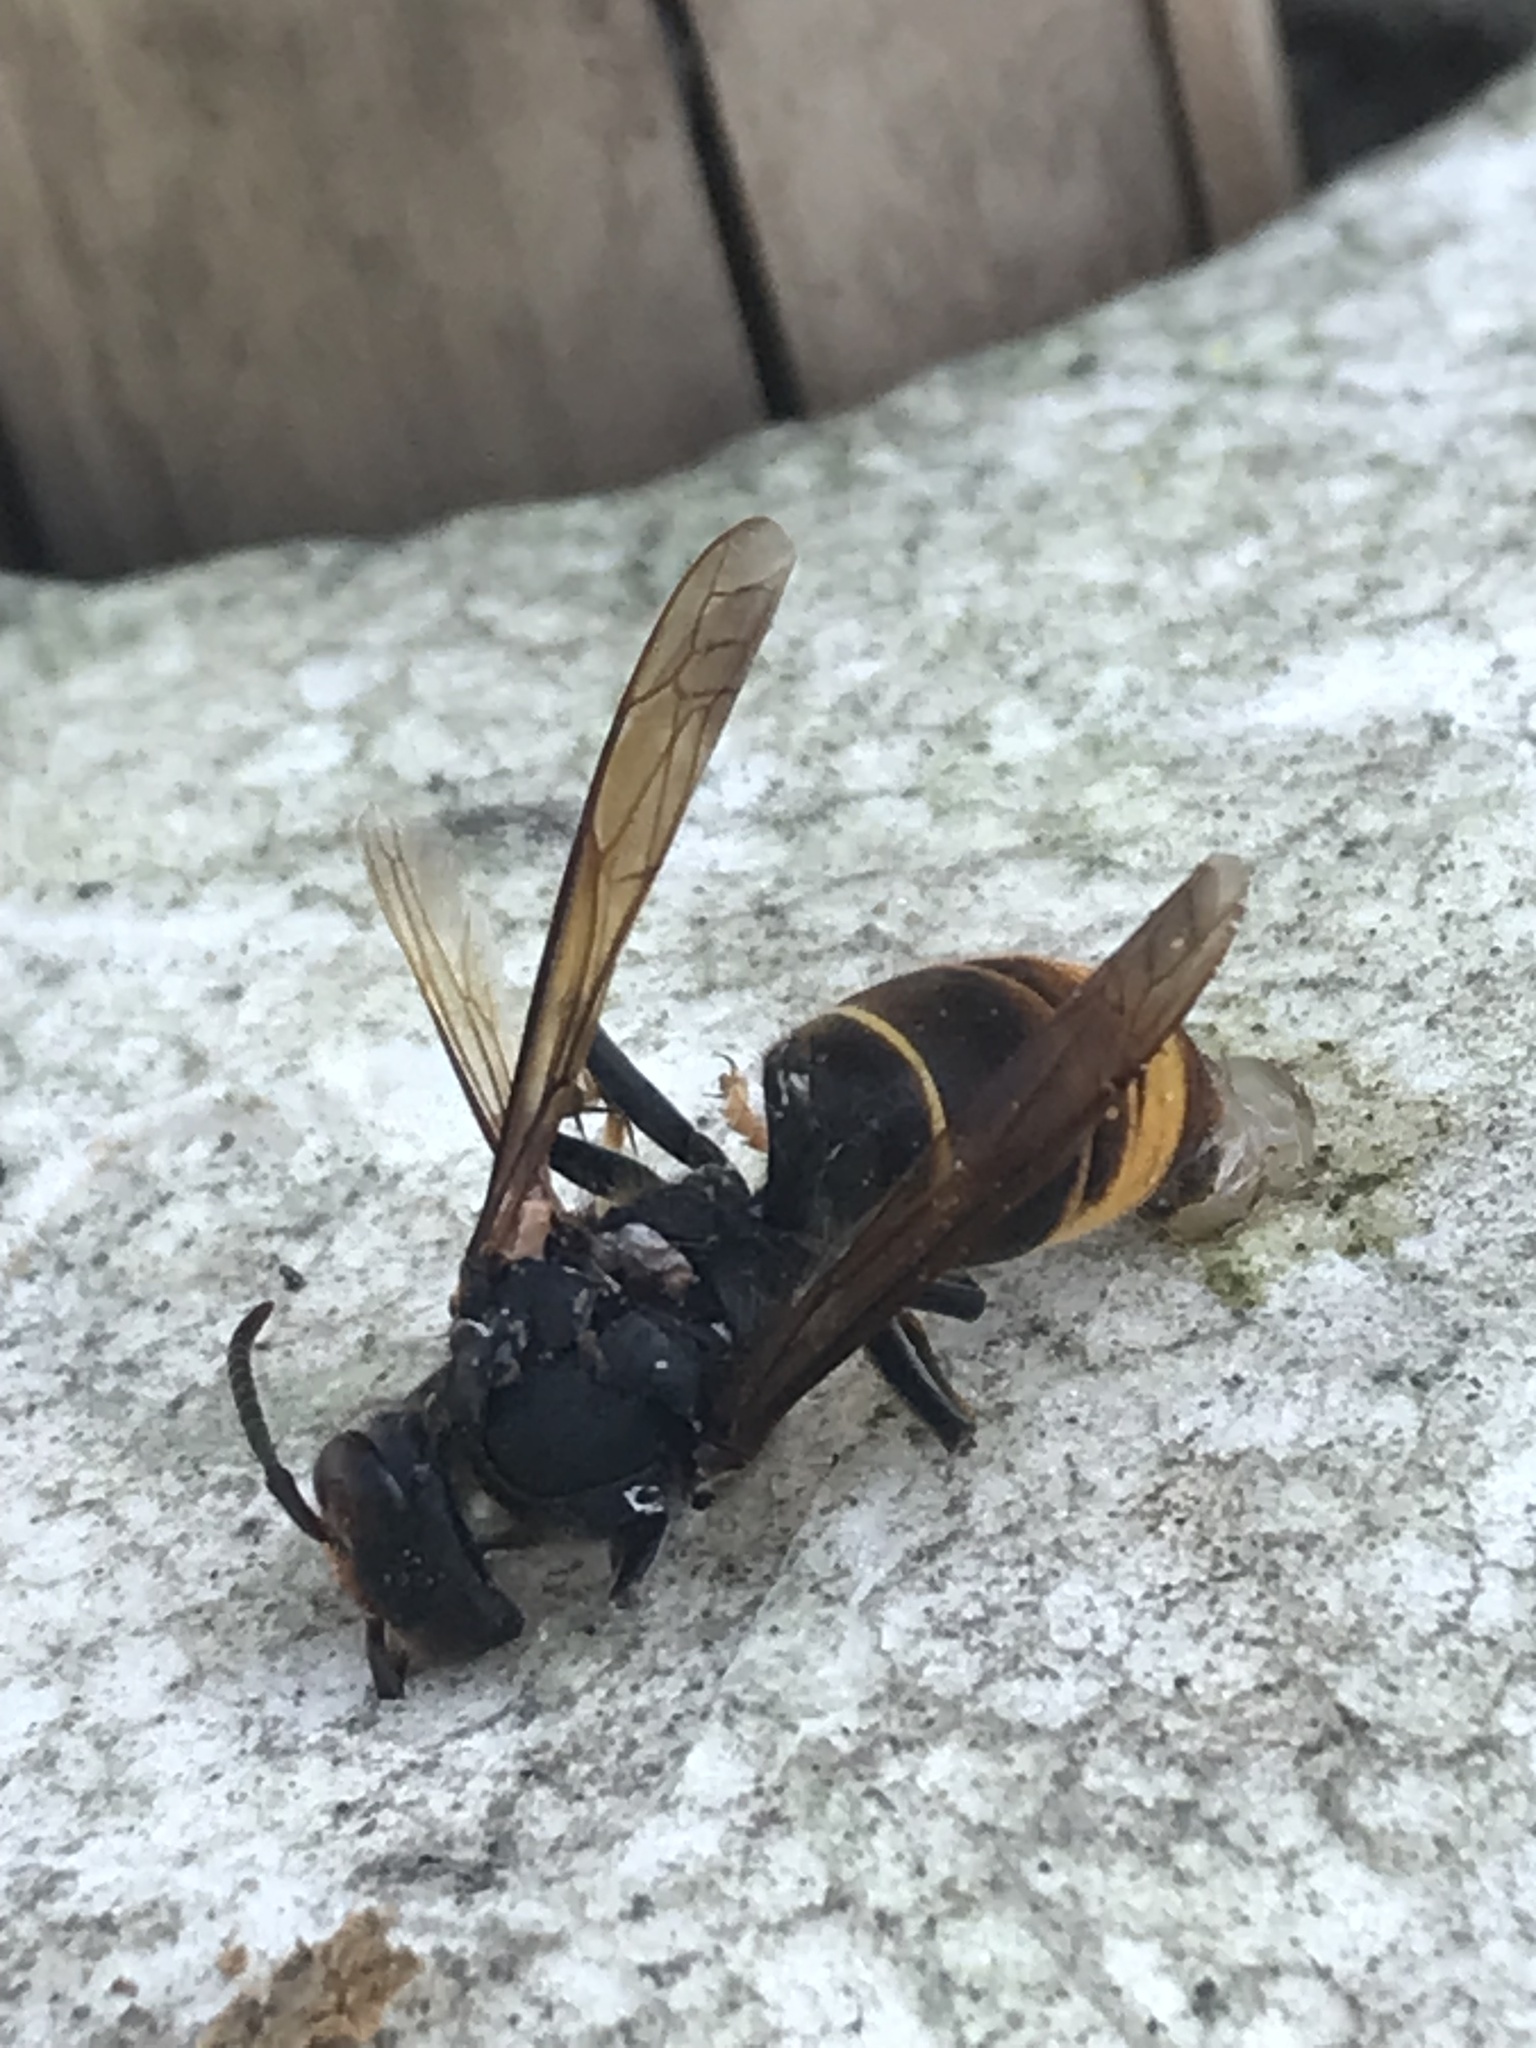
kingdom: Animalia
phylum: Arthropoda
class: Insecta
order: Hymenoptera
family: Vespidae
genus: Vespa
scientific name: Vespa velutina
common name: Asian hornet
